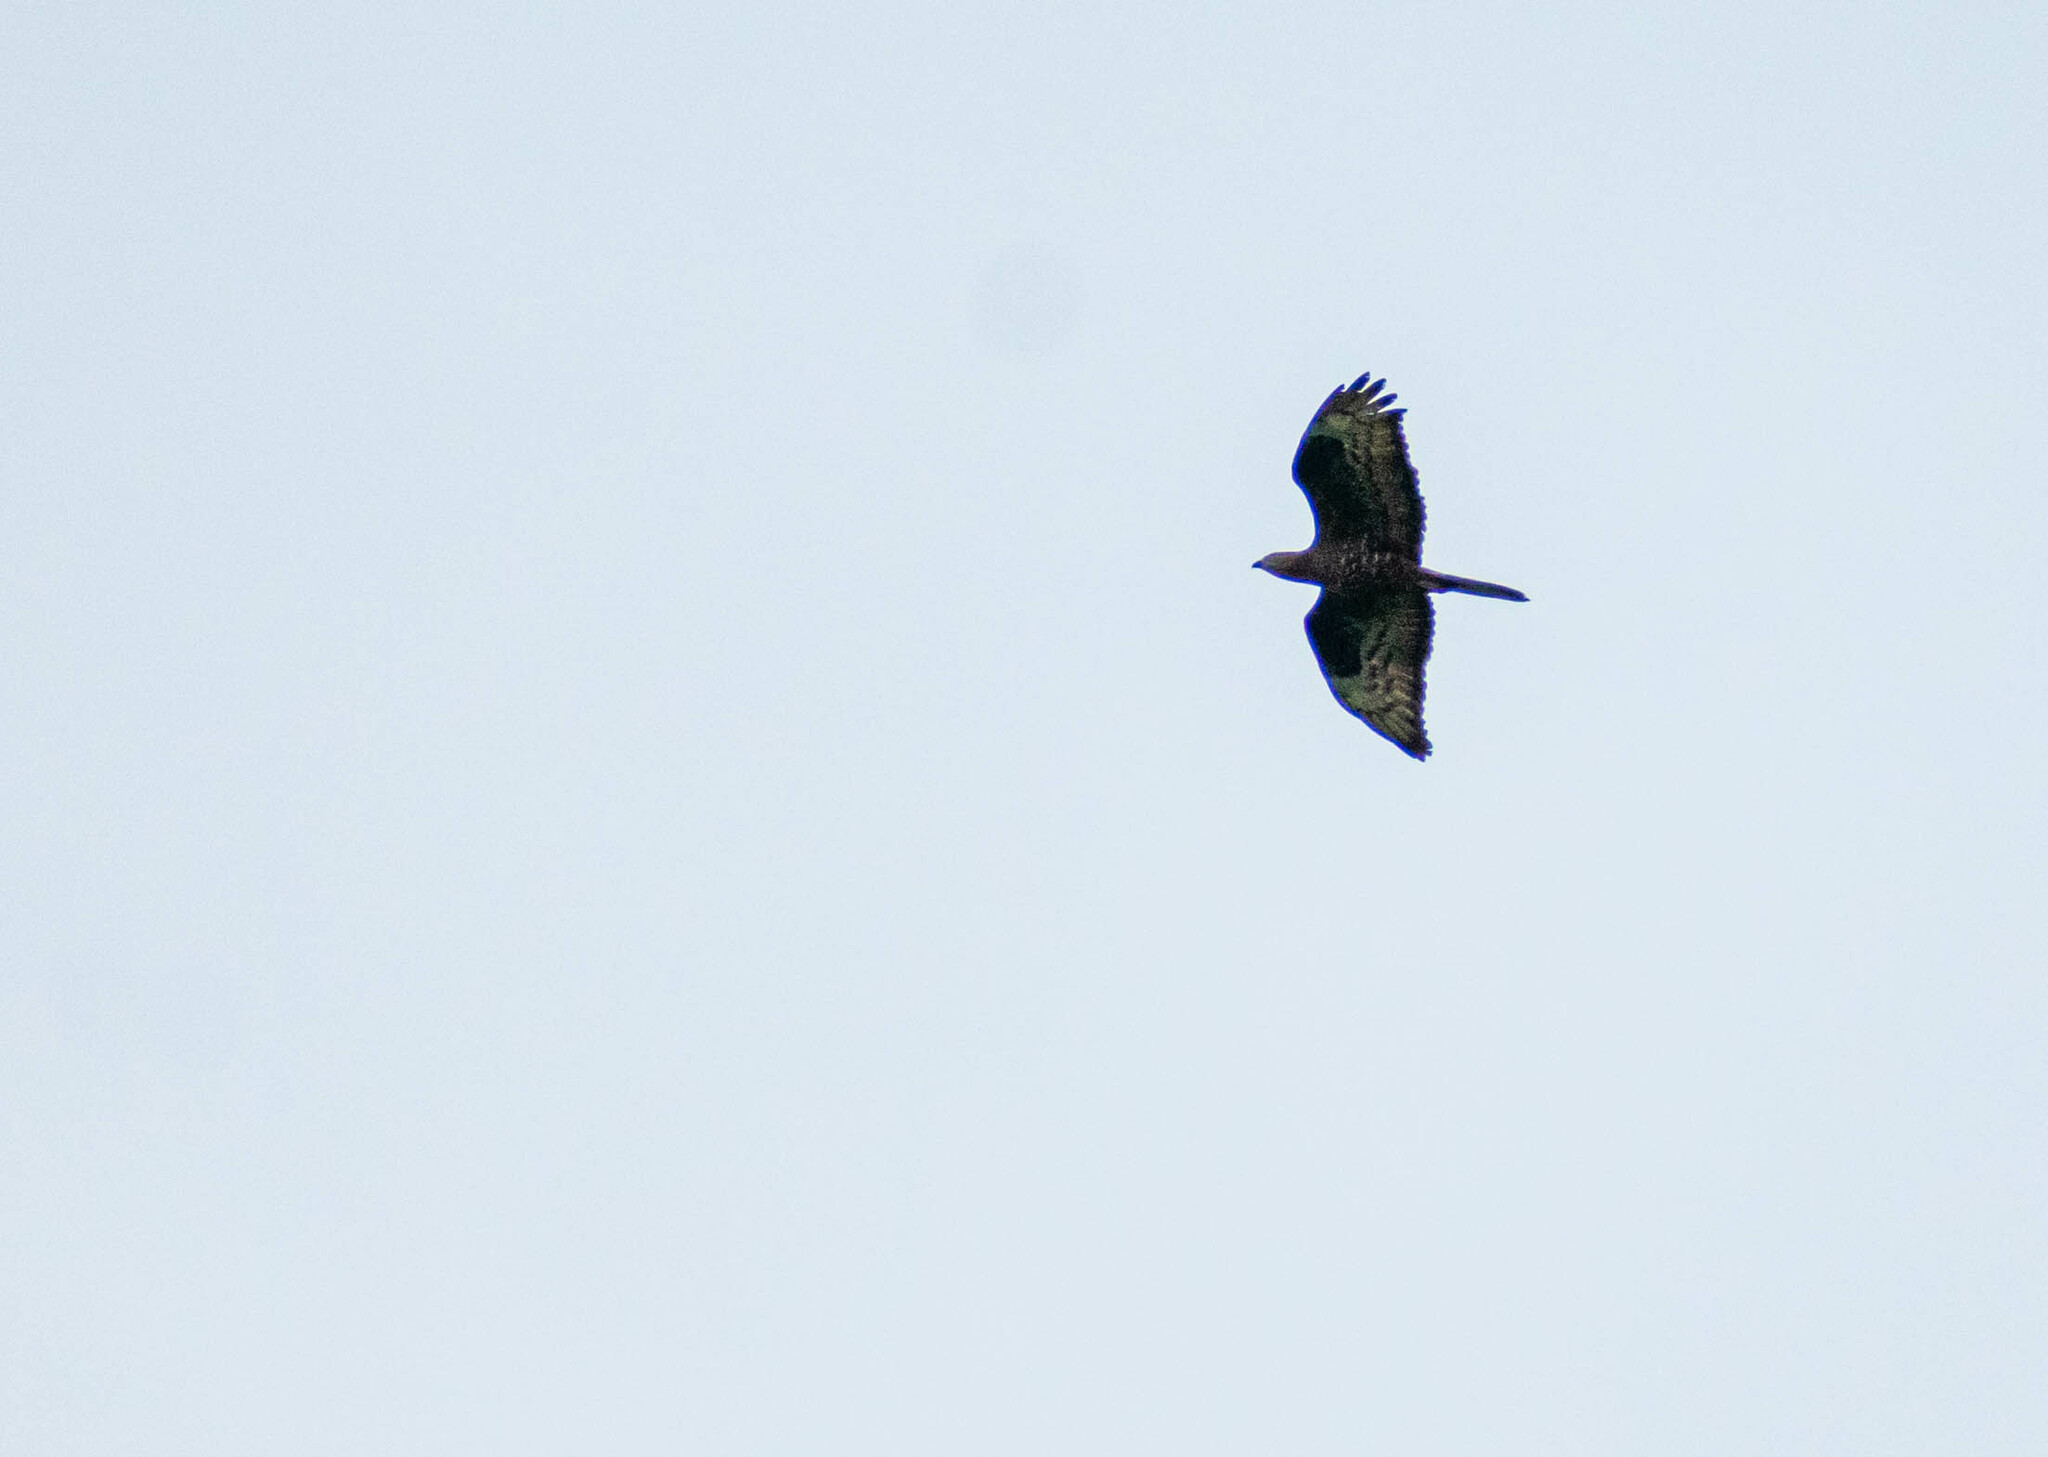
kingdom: Animalia
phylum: Chordata
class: Aves
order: Accipitriformes
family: Accipitridae
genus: Pernis
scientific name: Pernis apivorus
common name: European honey buzzard
